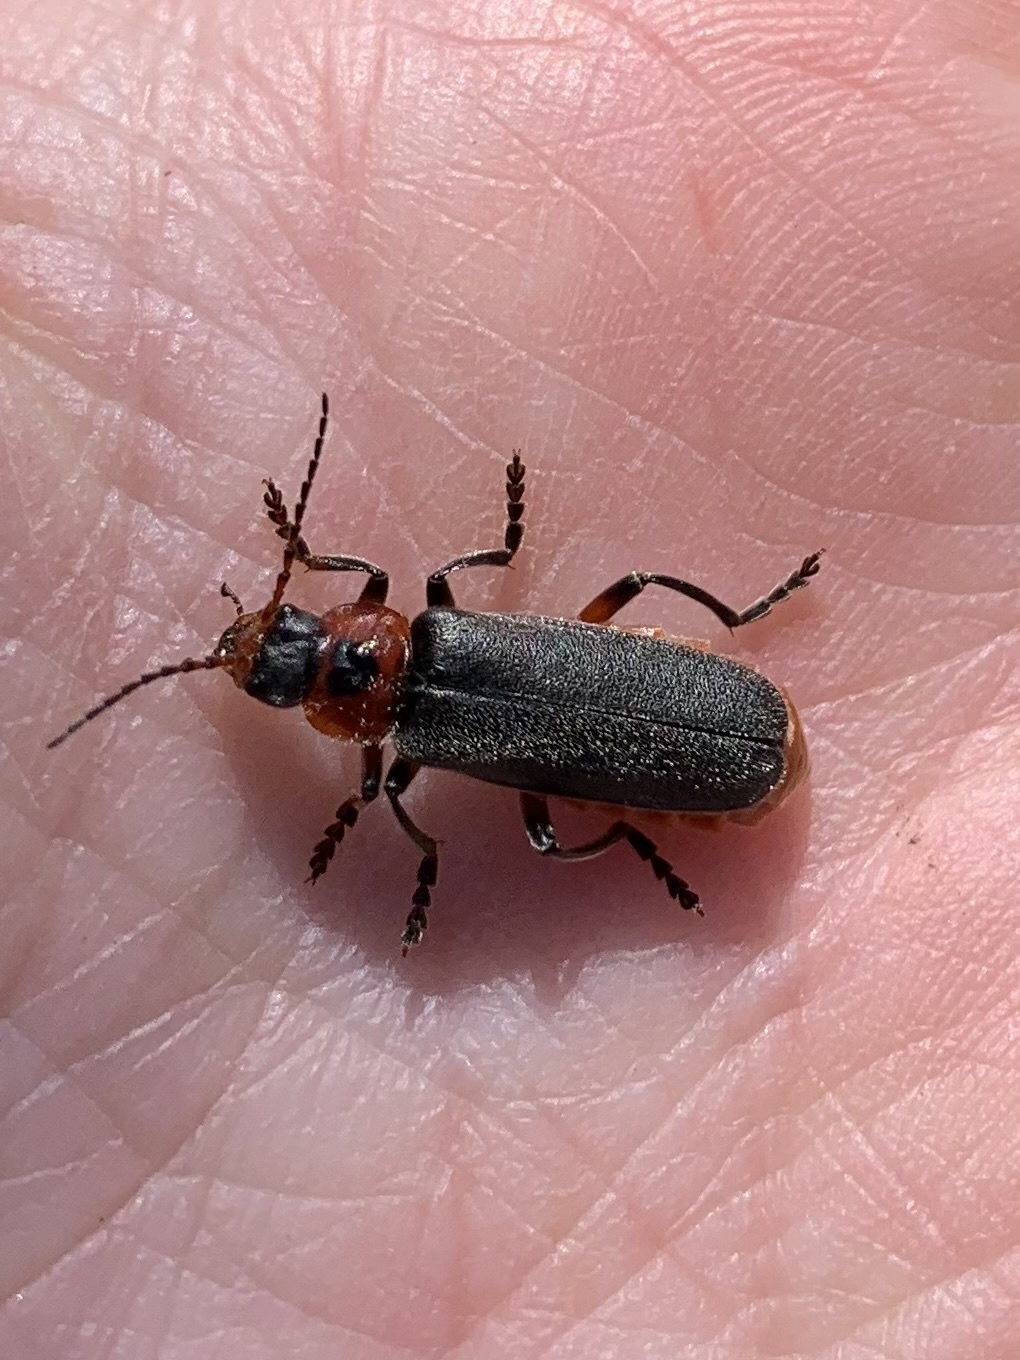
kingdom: Animalia
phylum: Arthropoda
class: Insecta
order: Coleoptera
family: Cantharidae
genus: Cantharis
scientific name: Cantharis rustica
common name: Soldier beetle
